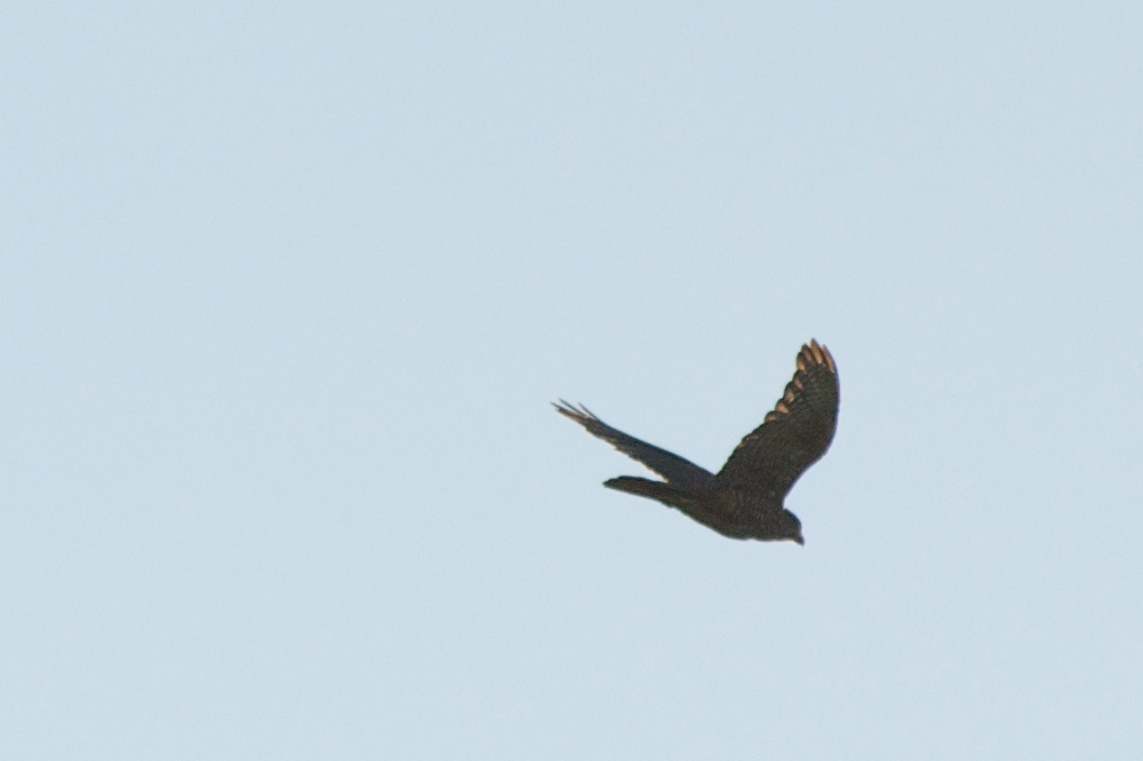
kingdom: Animalia
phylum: Chordata
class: Aves
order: Falconiformes
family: Falconidae
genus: Falco
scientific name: Falco novaeseelandiae
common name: New zealand falcon
